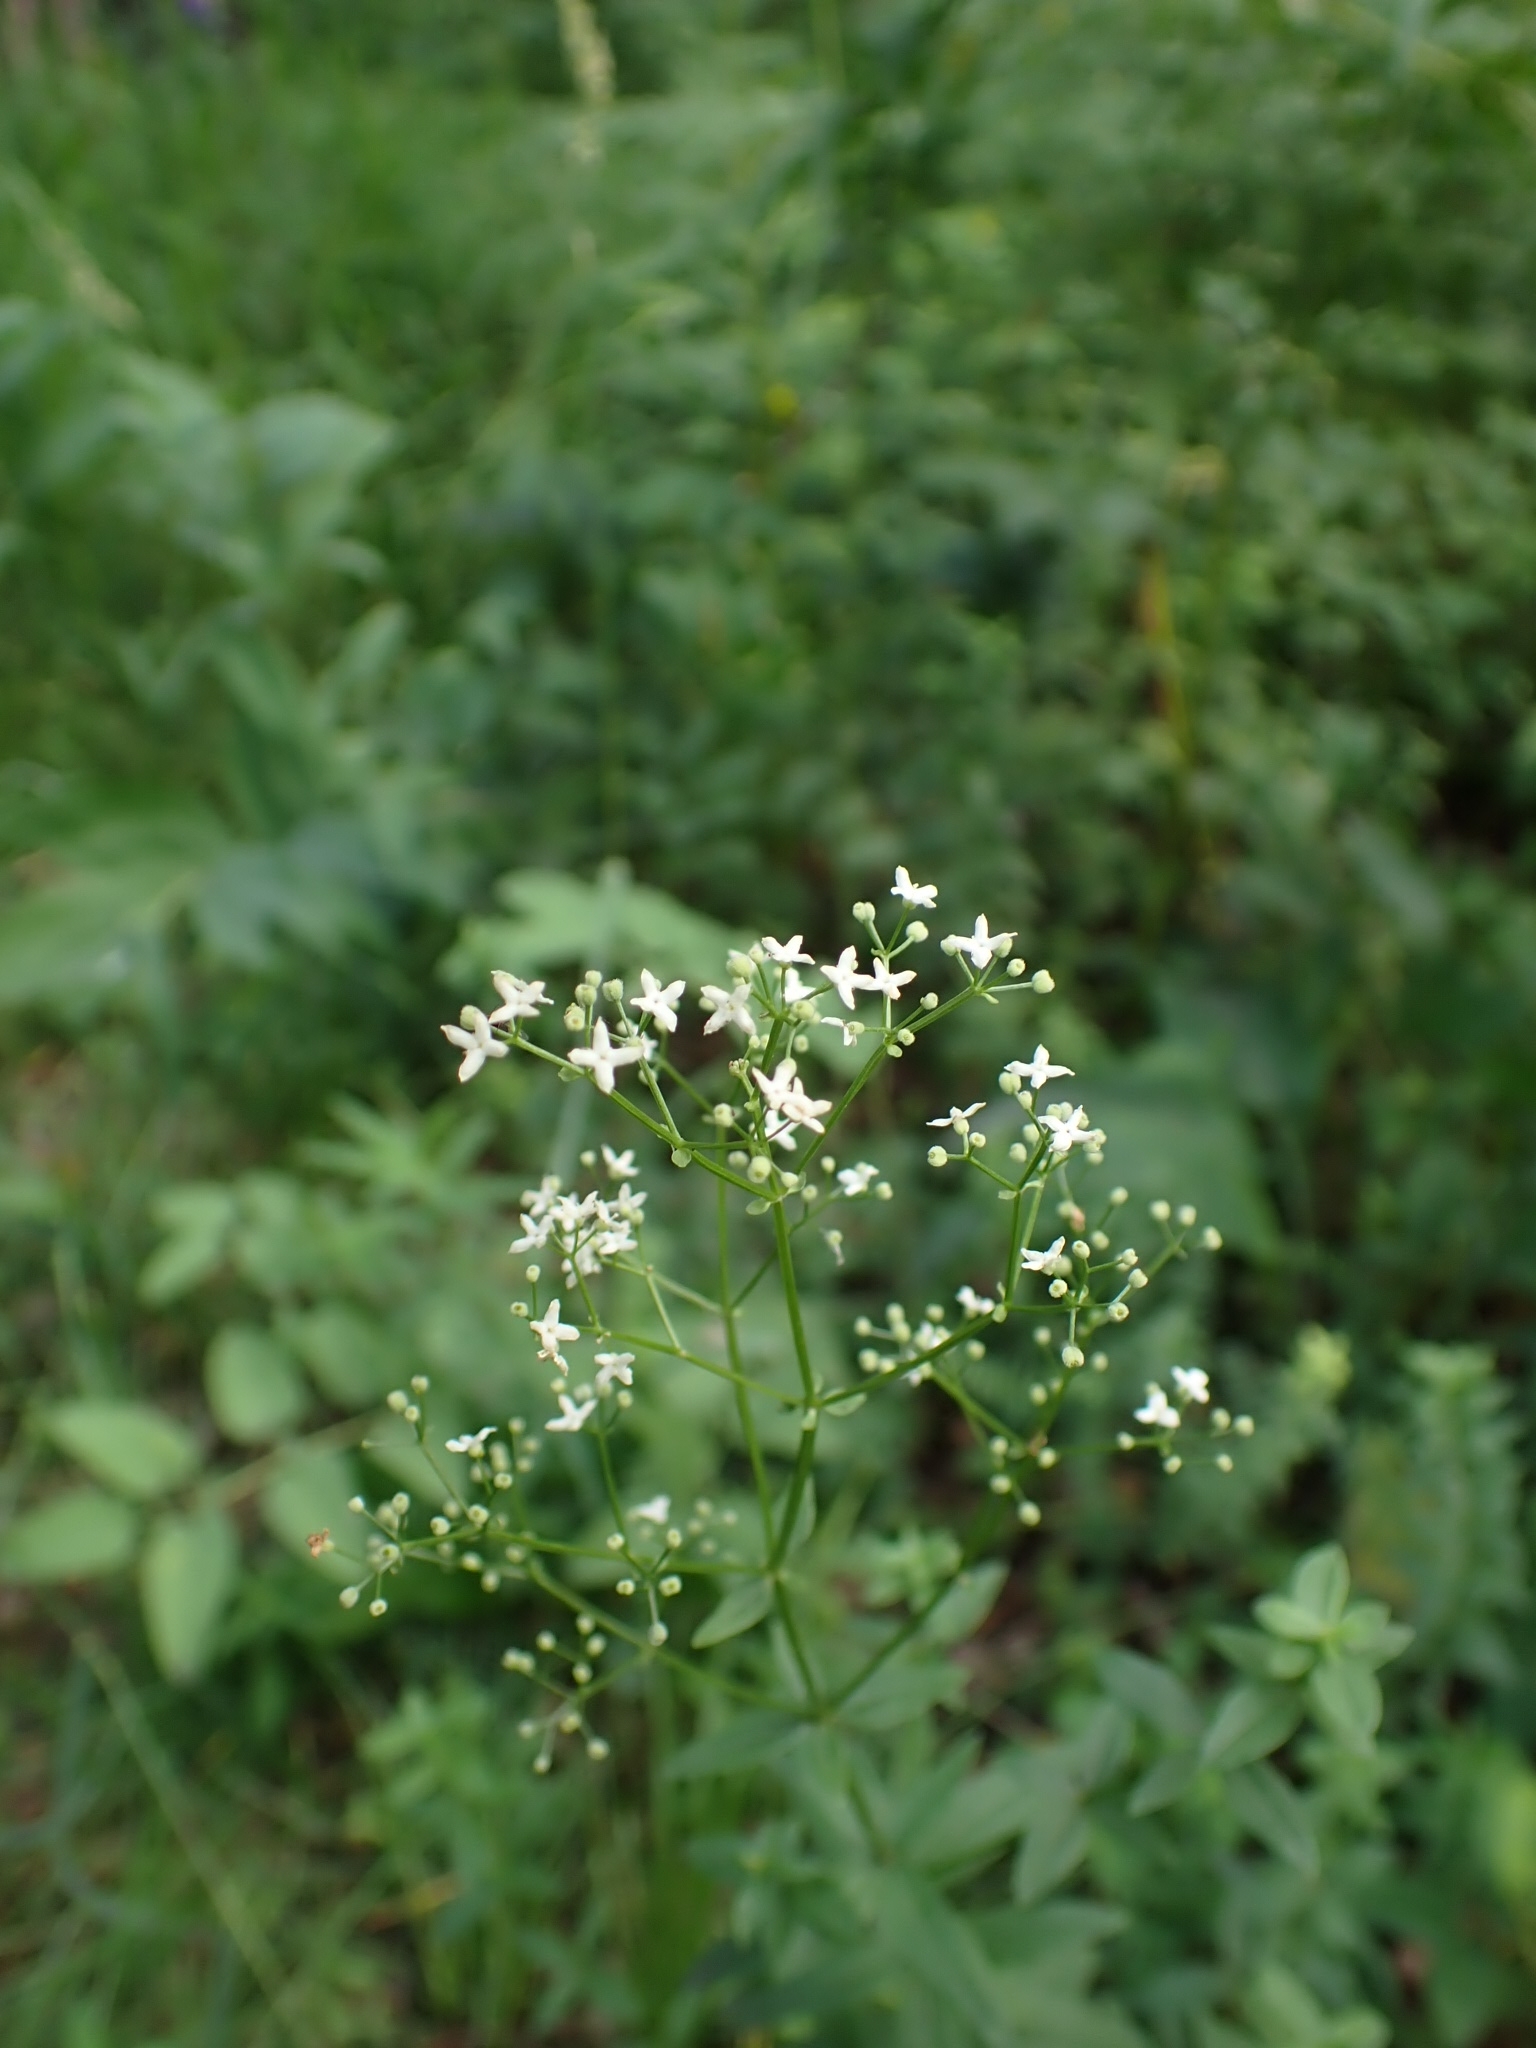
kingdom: Plantae
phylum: Tracheophyta
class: Magnoliopsida
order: Gentianales
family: Rubiaceae
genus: Galium
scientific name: Galium boreale
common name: Northern bedstraw
